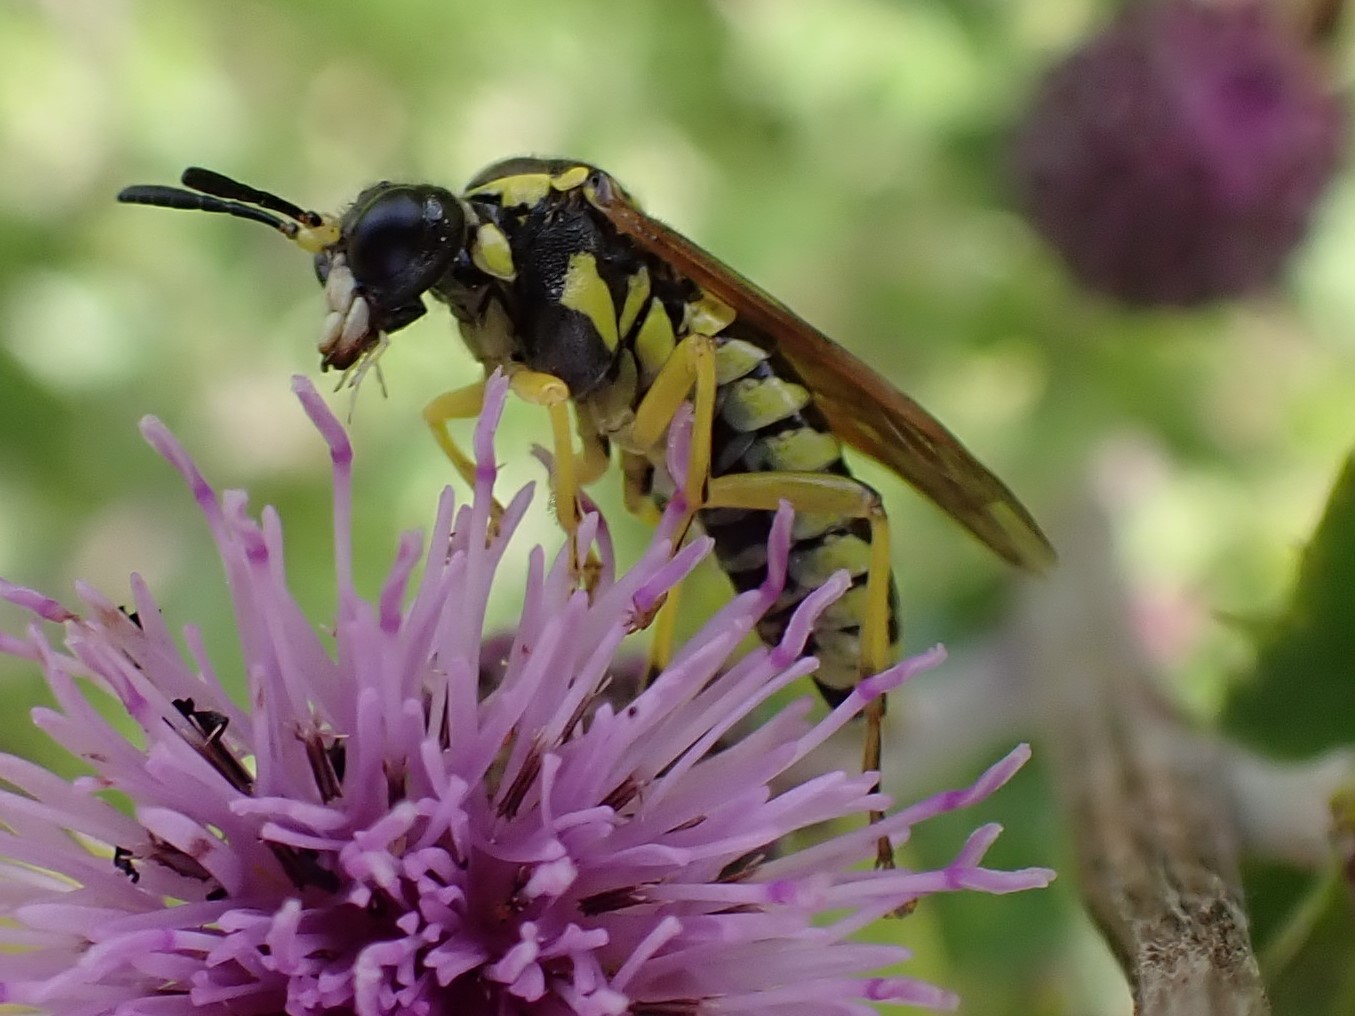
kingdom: Animalia
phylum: Arthropoda
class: Insecta
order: Hymenoptera
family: Tenthredinidae
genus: Tenthredo
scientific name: Tenthredo notha
